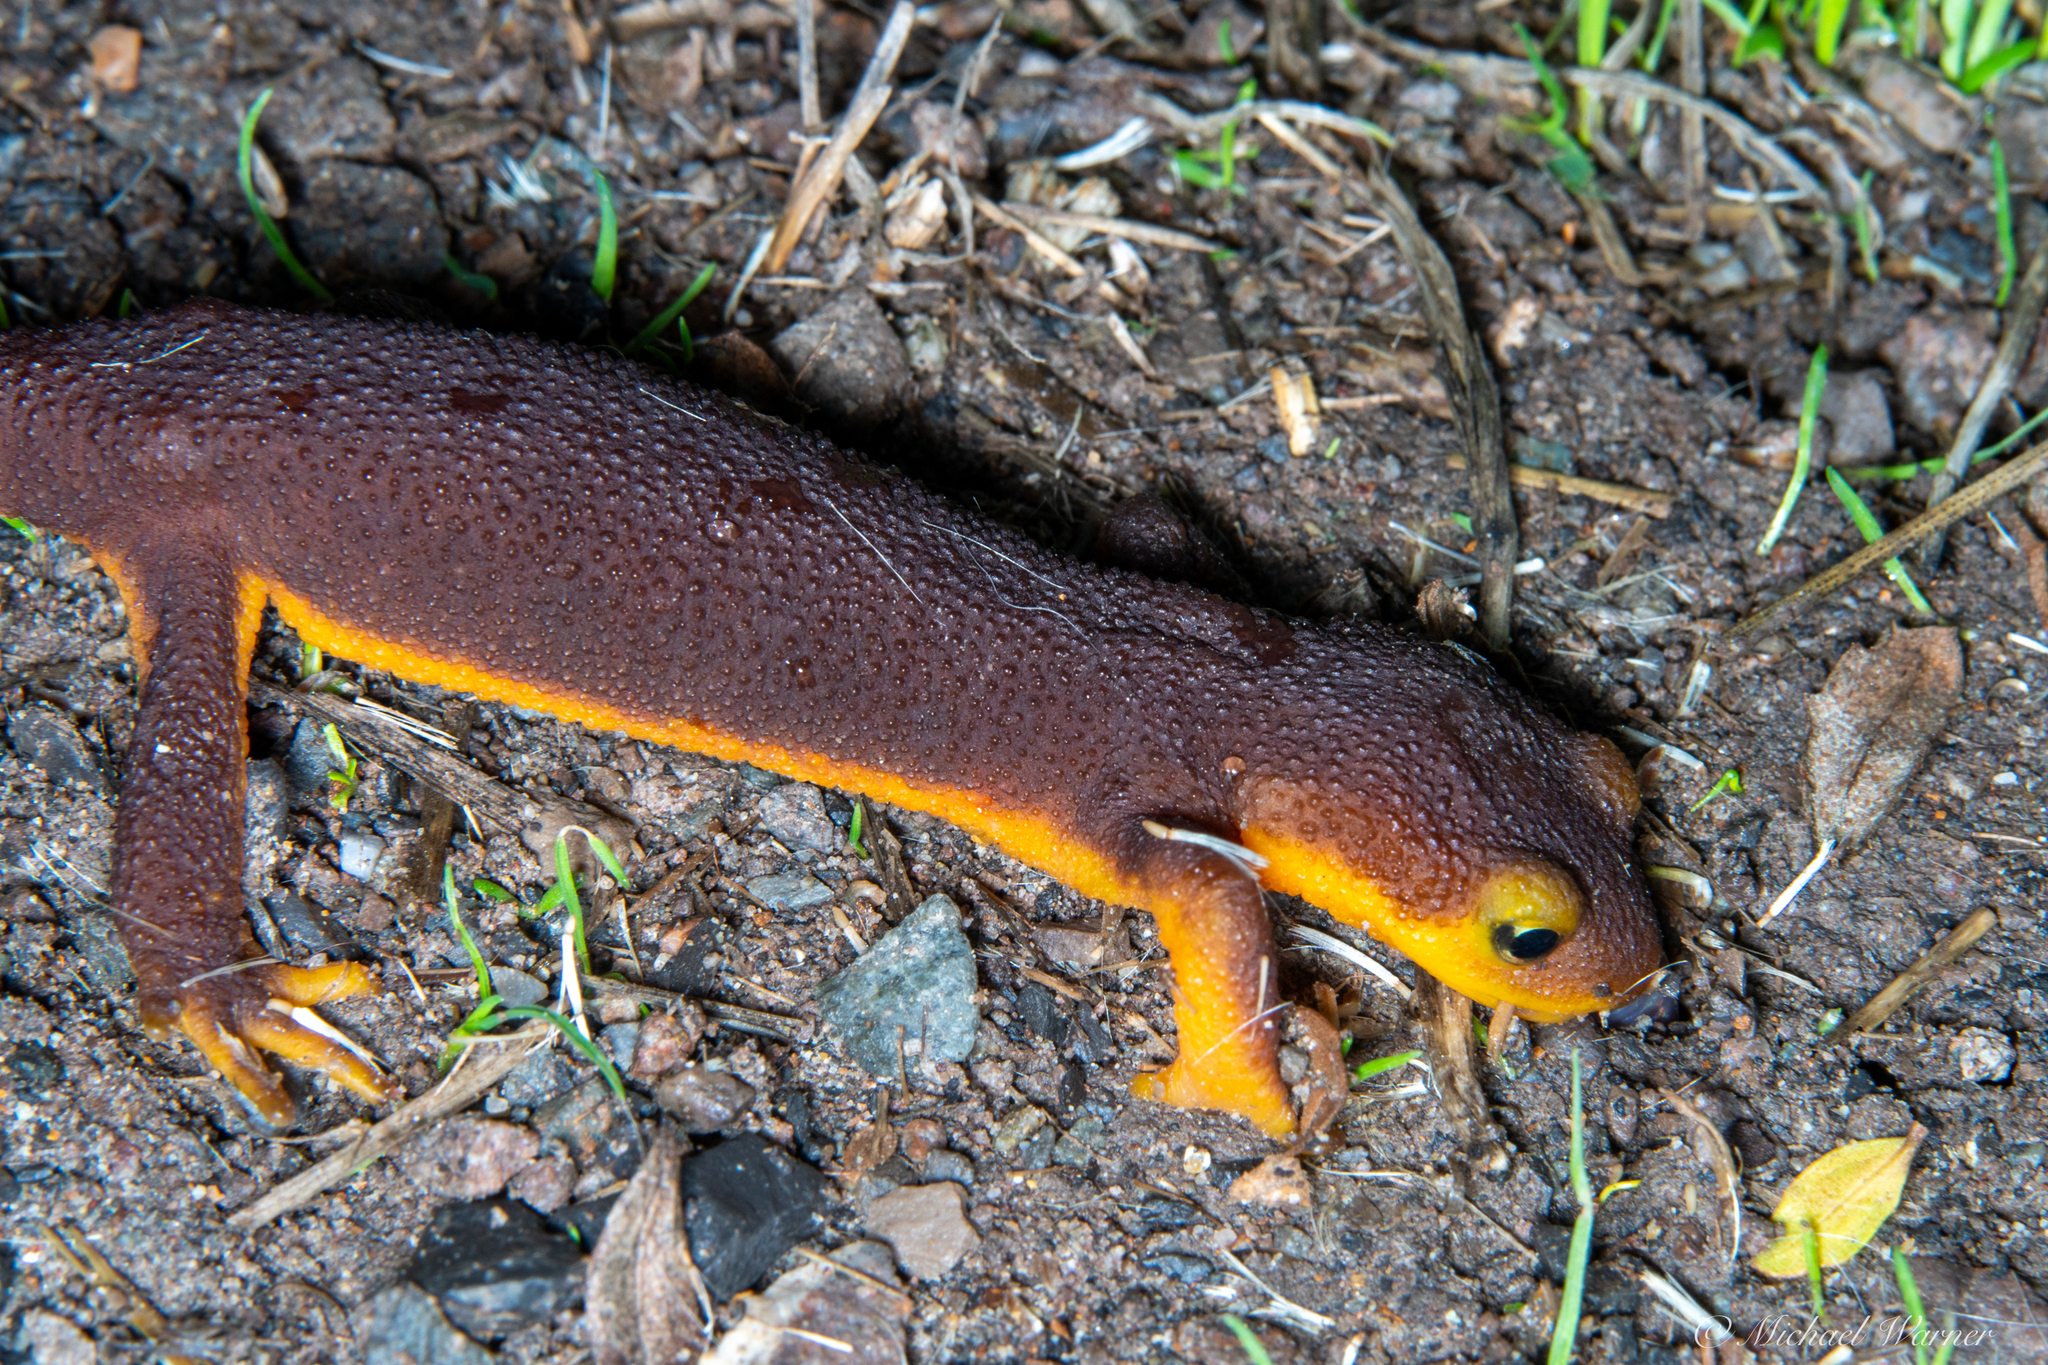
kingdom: Animalia
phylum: Chordata
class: Amphibia
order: Caudata
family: Salamandridae
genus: Taricha
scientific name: Taricha torosa
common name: California newt
